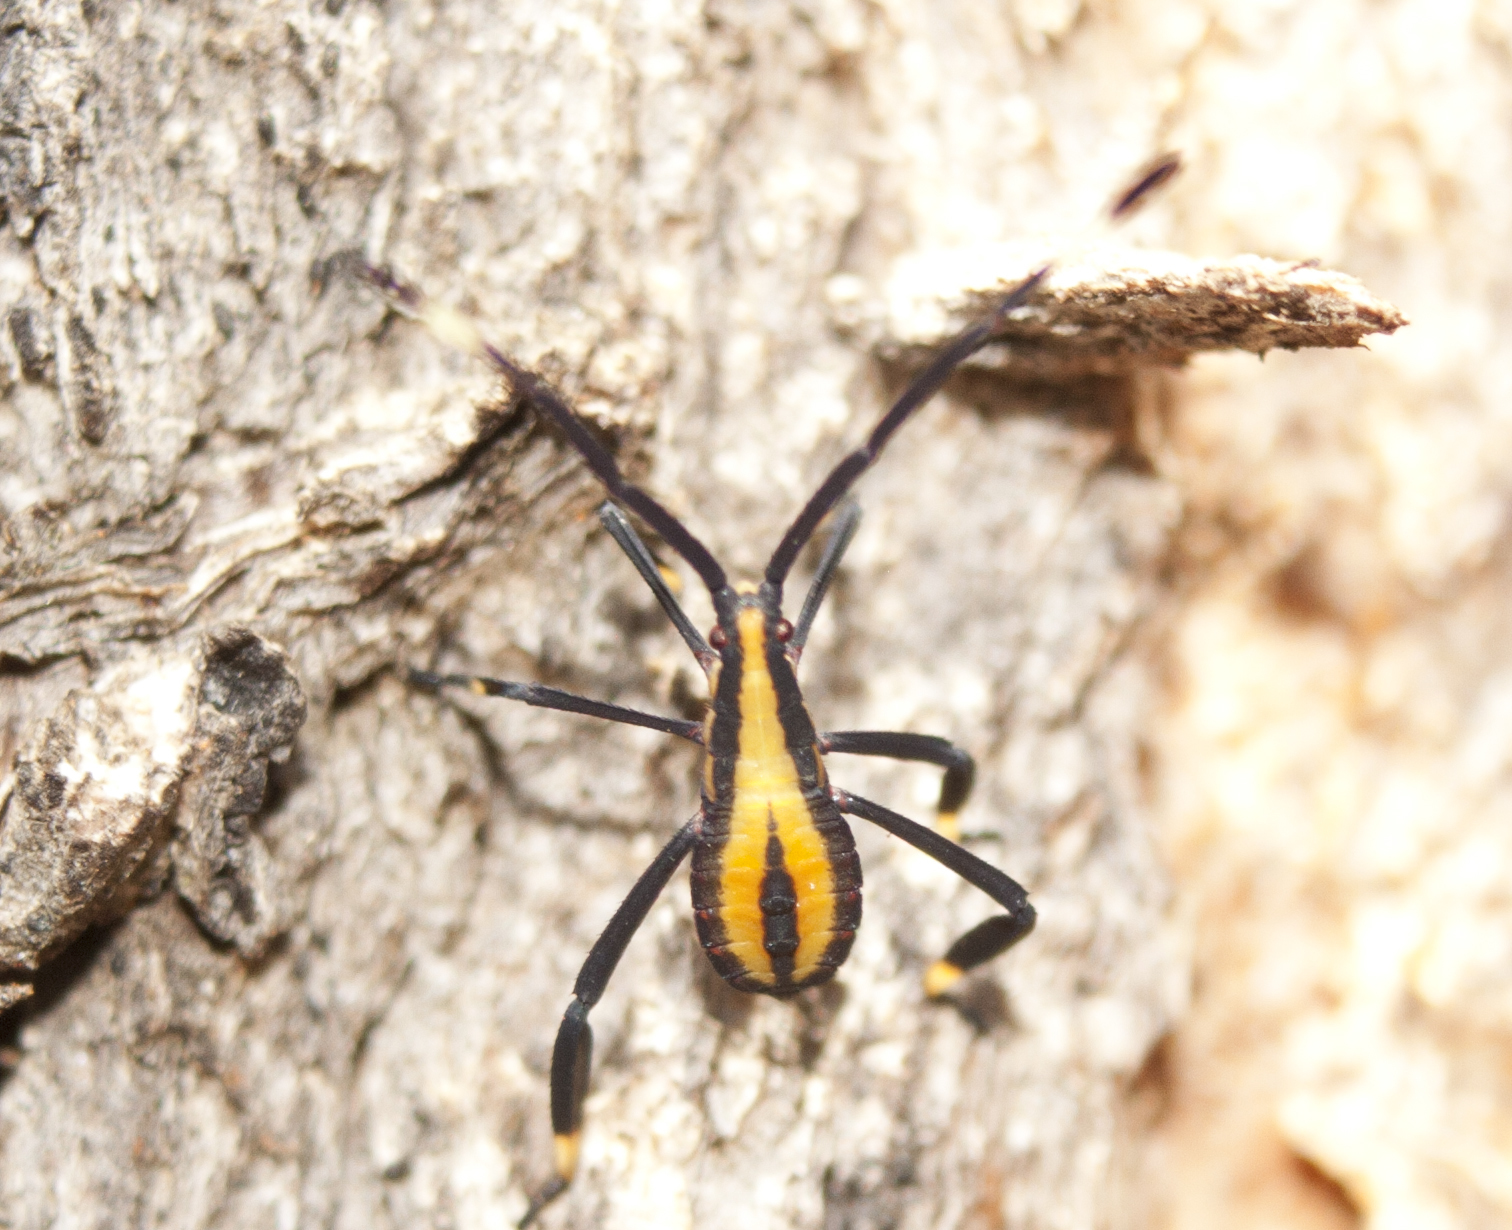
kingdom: Animalia
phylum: Arthropoda
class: Insecta
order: Hemiptera
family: Coreidae
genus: Amorbus
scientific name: Amorbus alternatus
